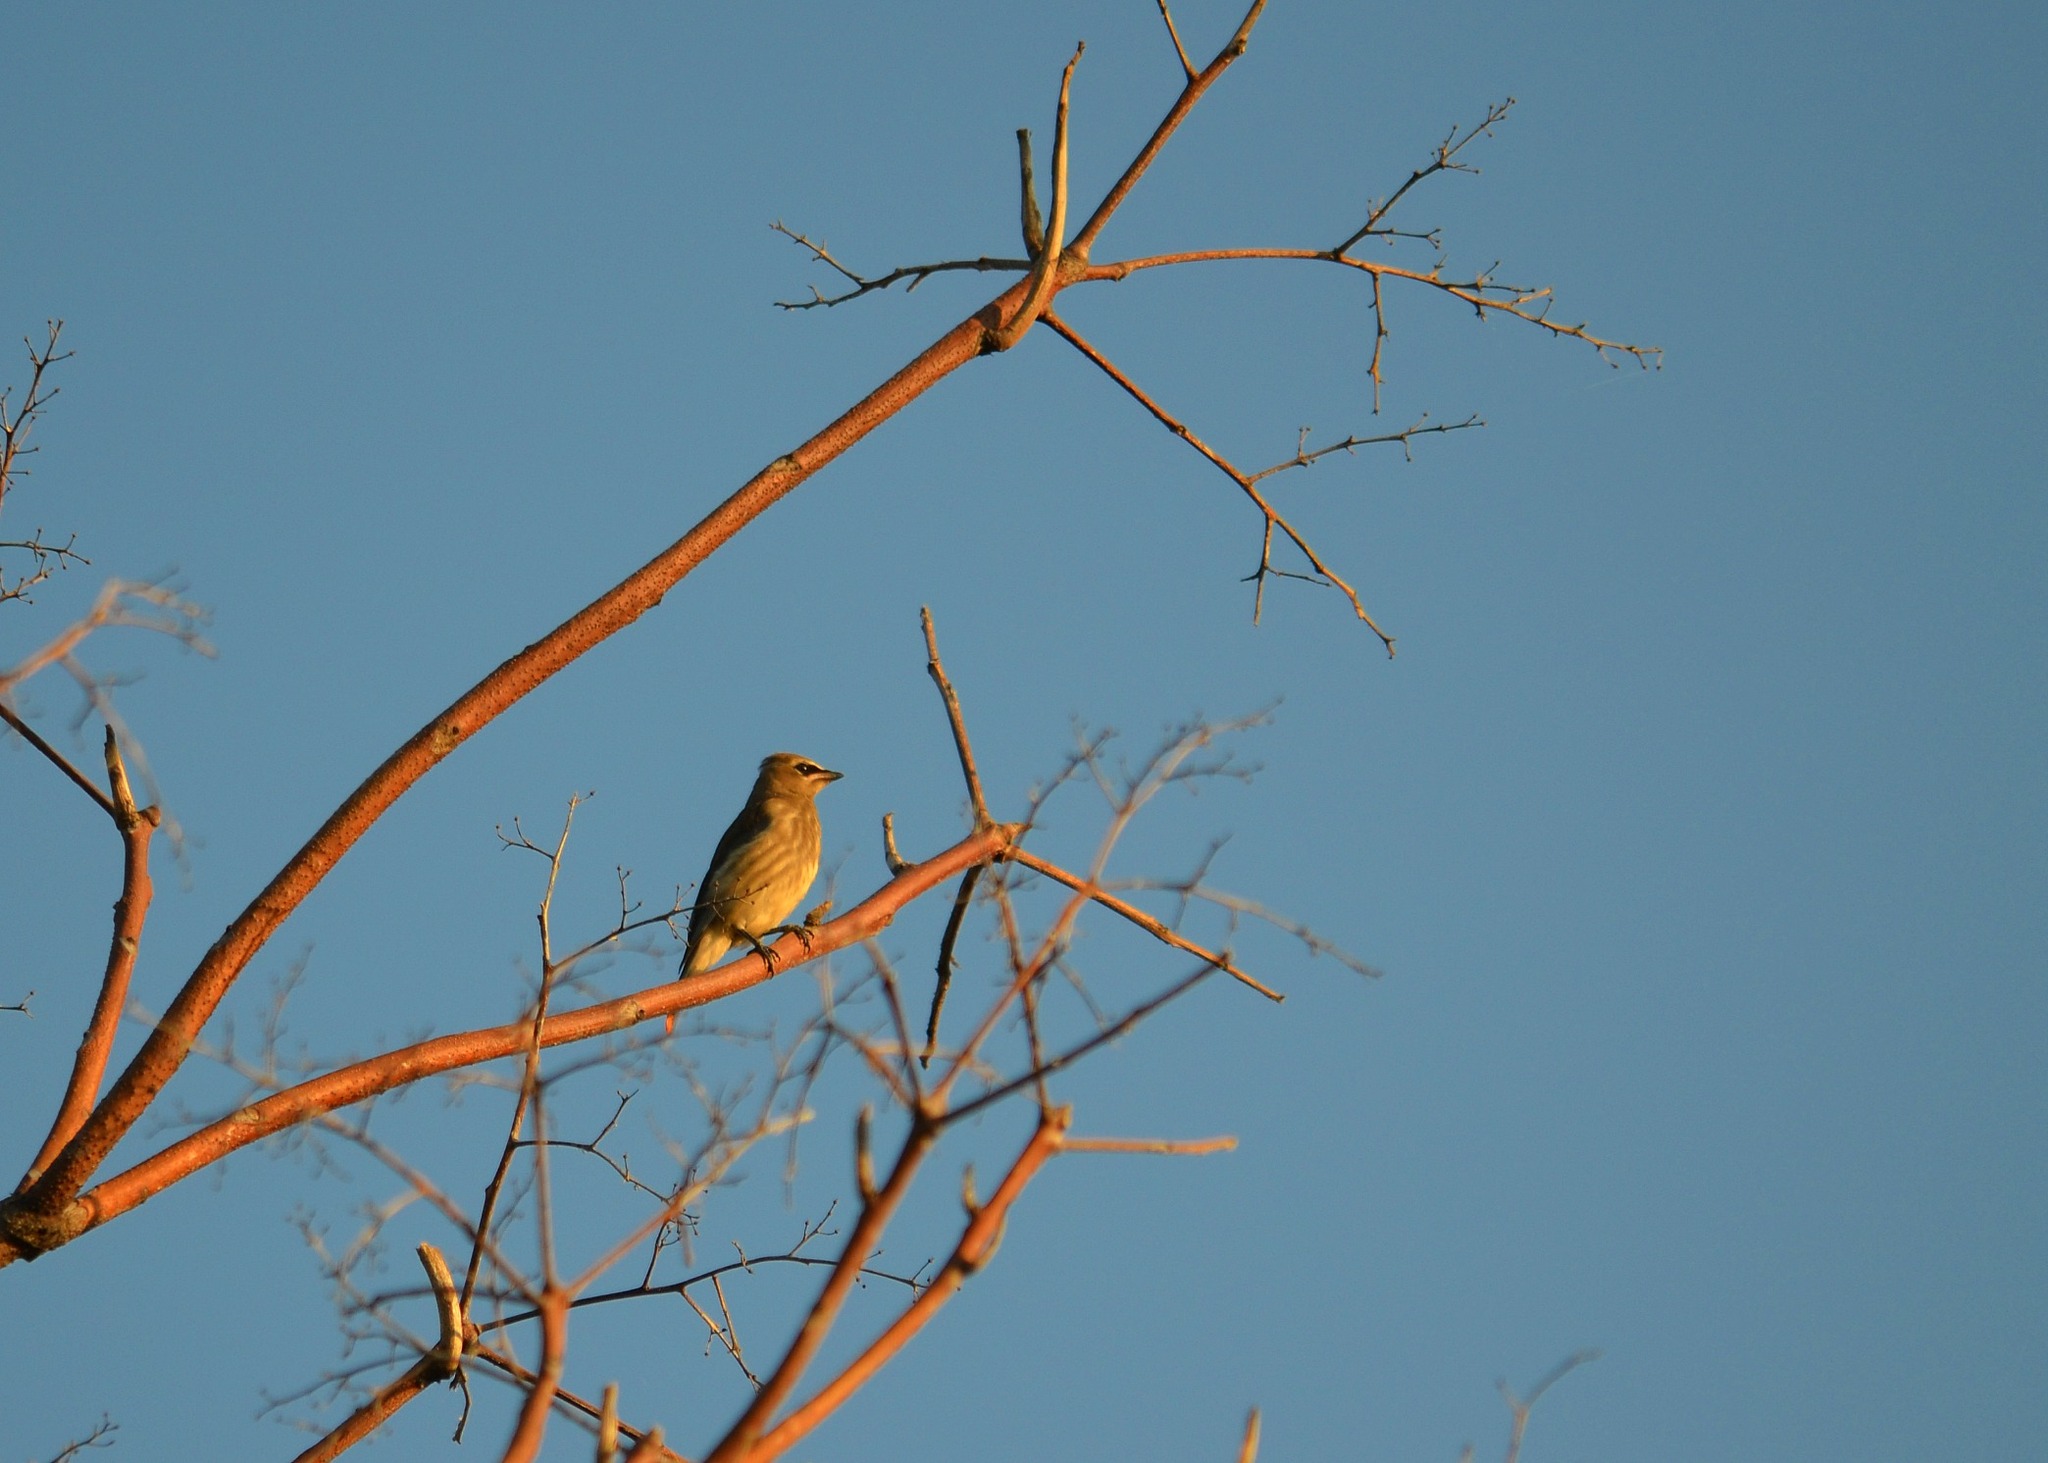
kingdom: Animalia
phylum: Chordata
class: Aves
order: Passeriformes
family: Bombycillidae
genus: Bombycilla
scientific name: Bombycilla cedrorum
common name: Cedar waxwing
